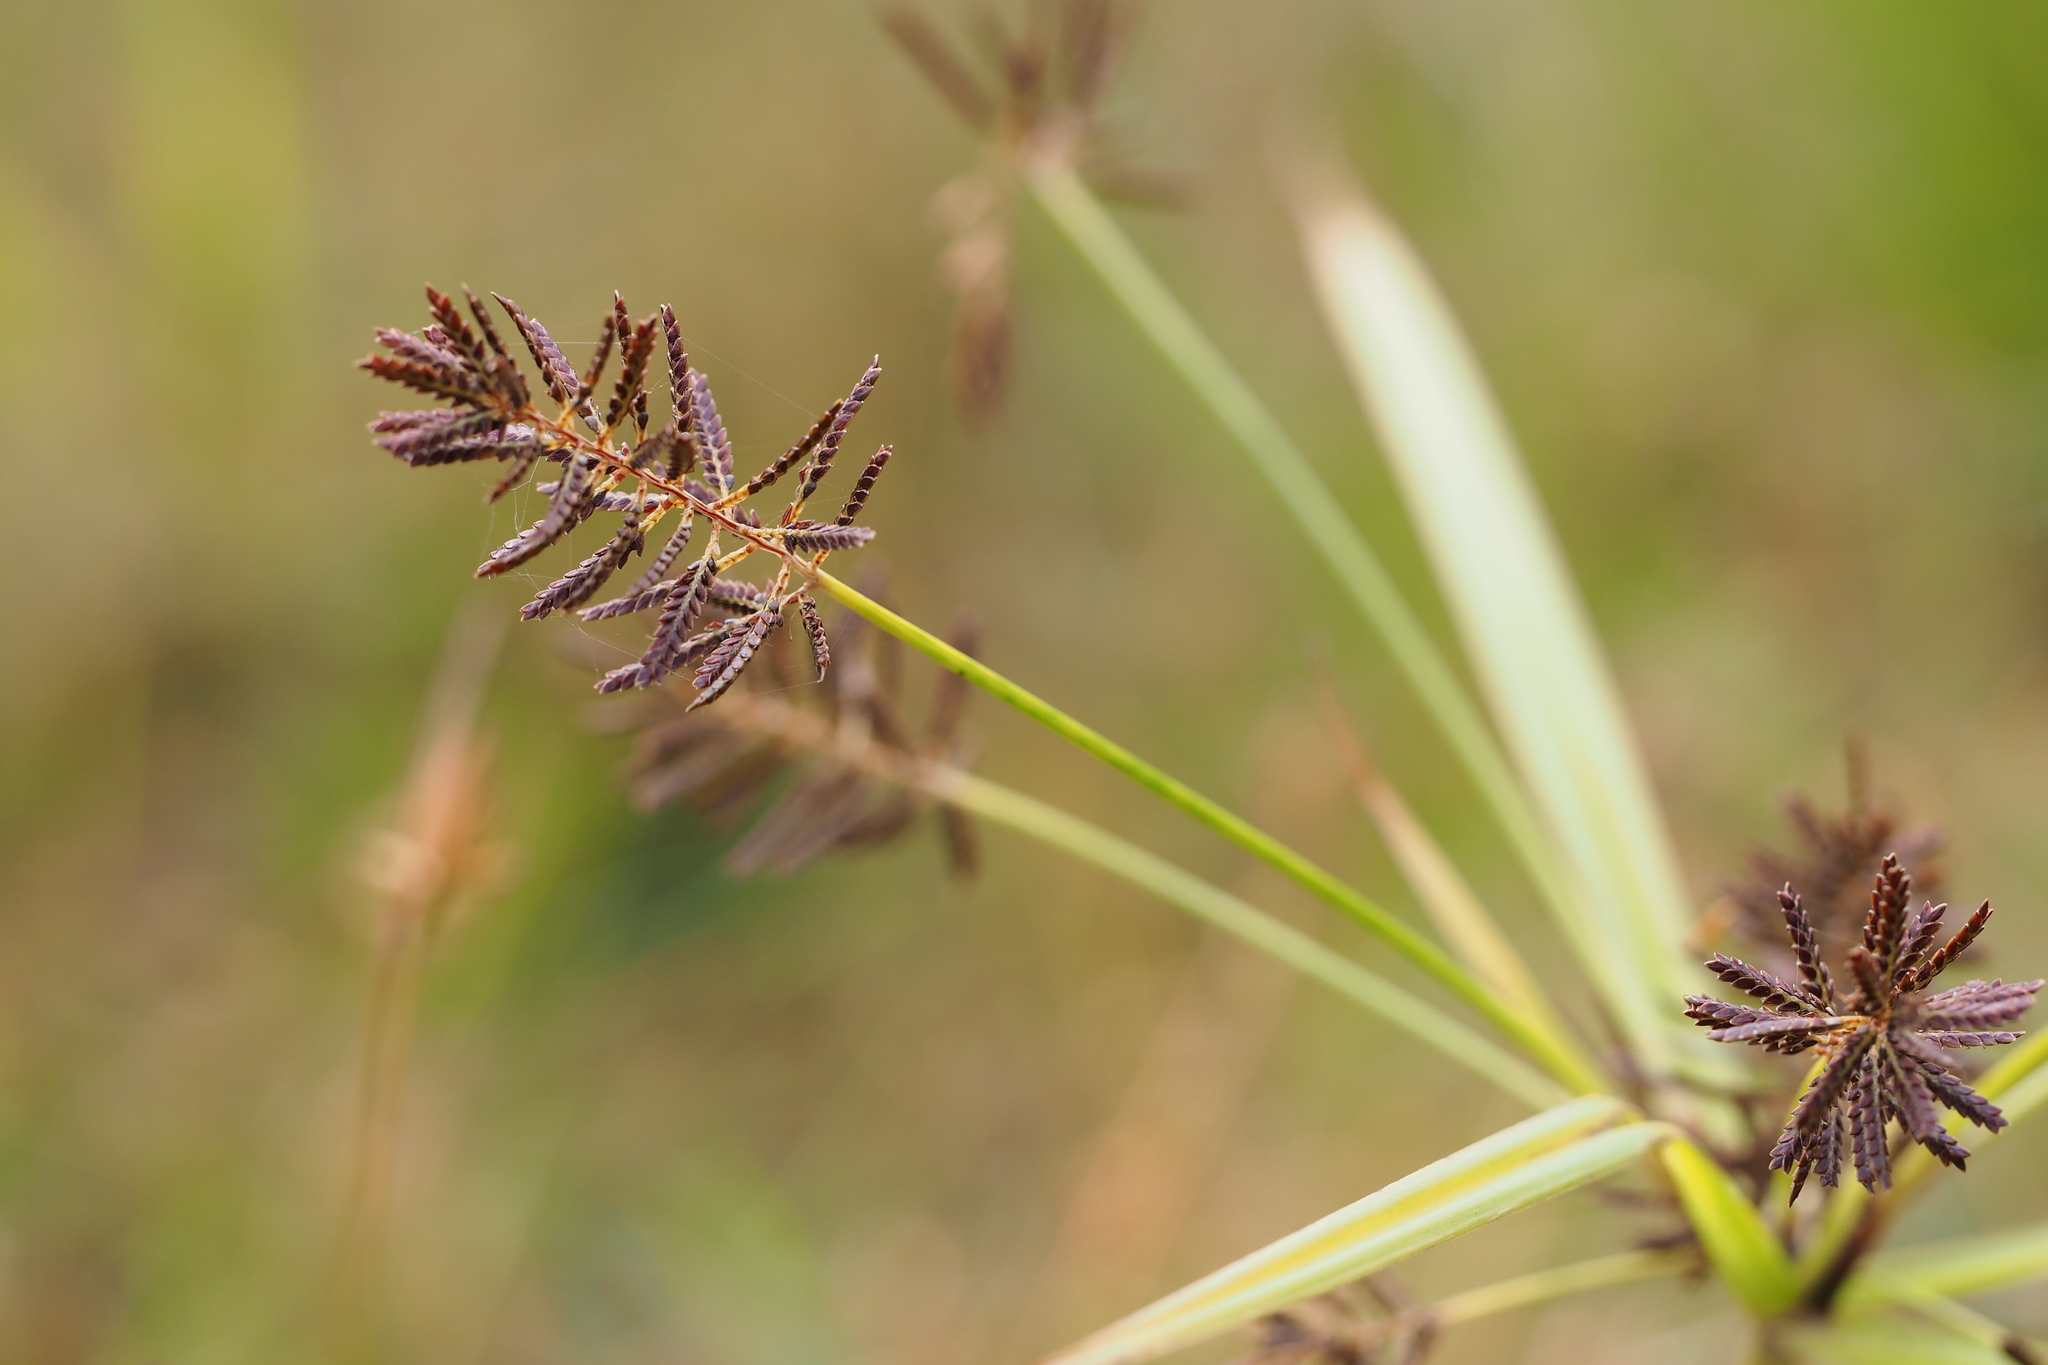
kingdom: Plantae
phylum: Tracheophyta
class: Liliopsida
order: Poales
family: Cyperaceae
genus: Cyperus
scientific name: Cyperus orthostachyus
